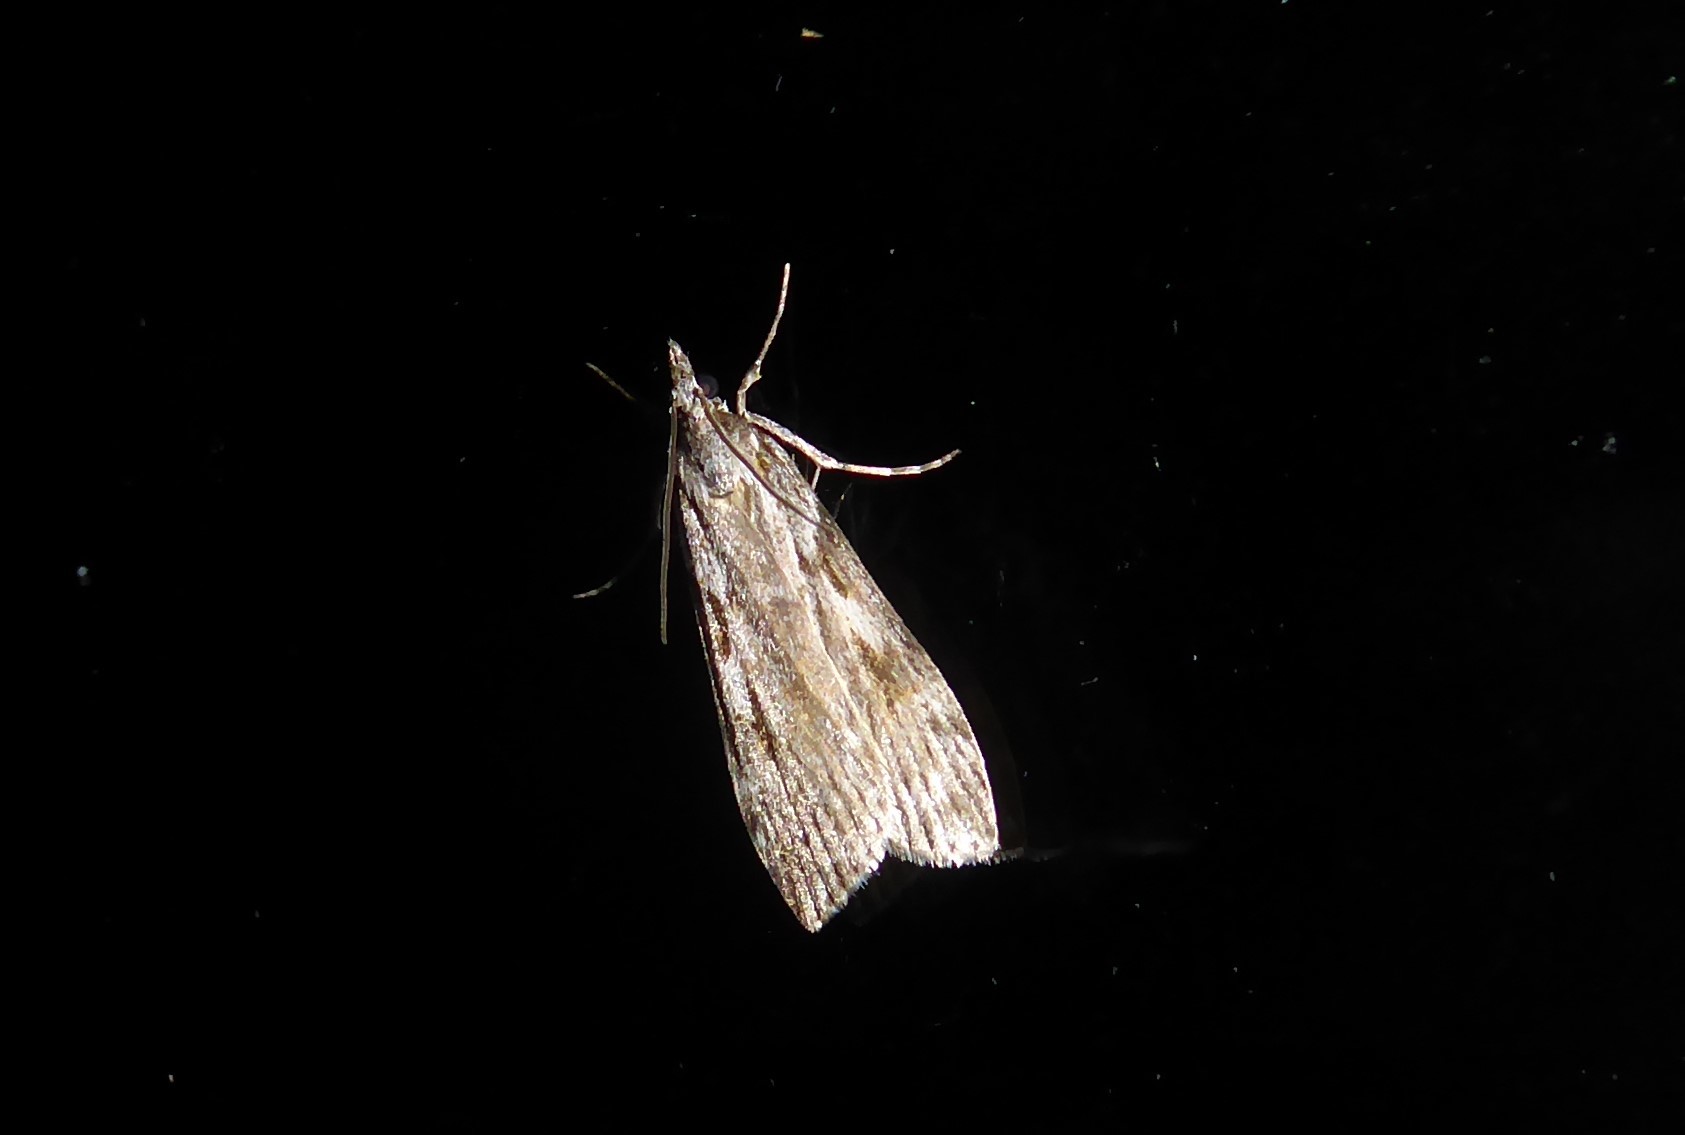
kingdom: Animalia
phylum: Arthropoda
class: Insecta
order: Lepidoptera
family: Crambidae
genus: Scoparia
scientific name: Scoparia halopis
